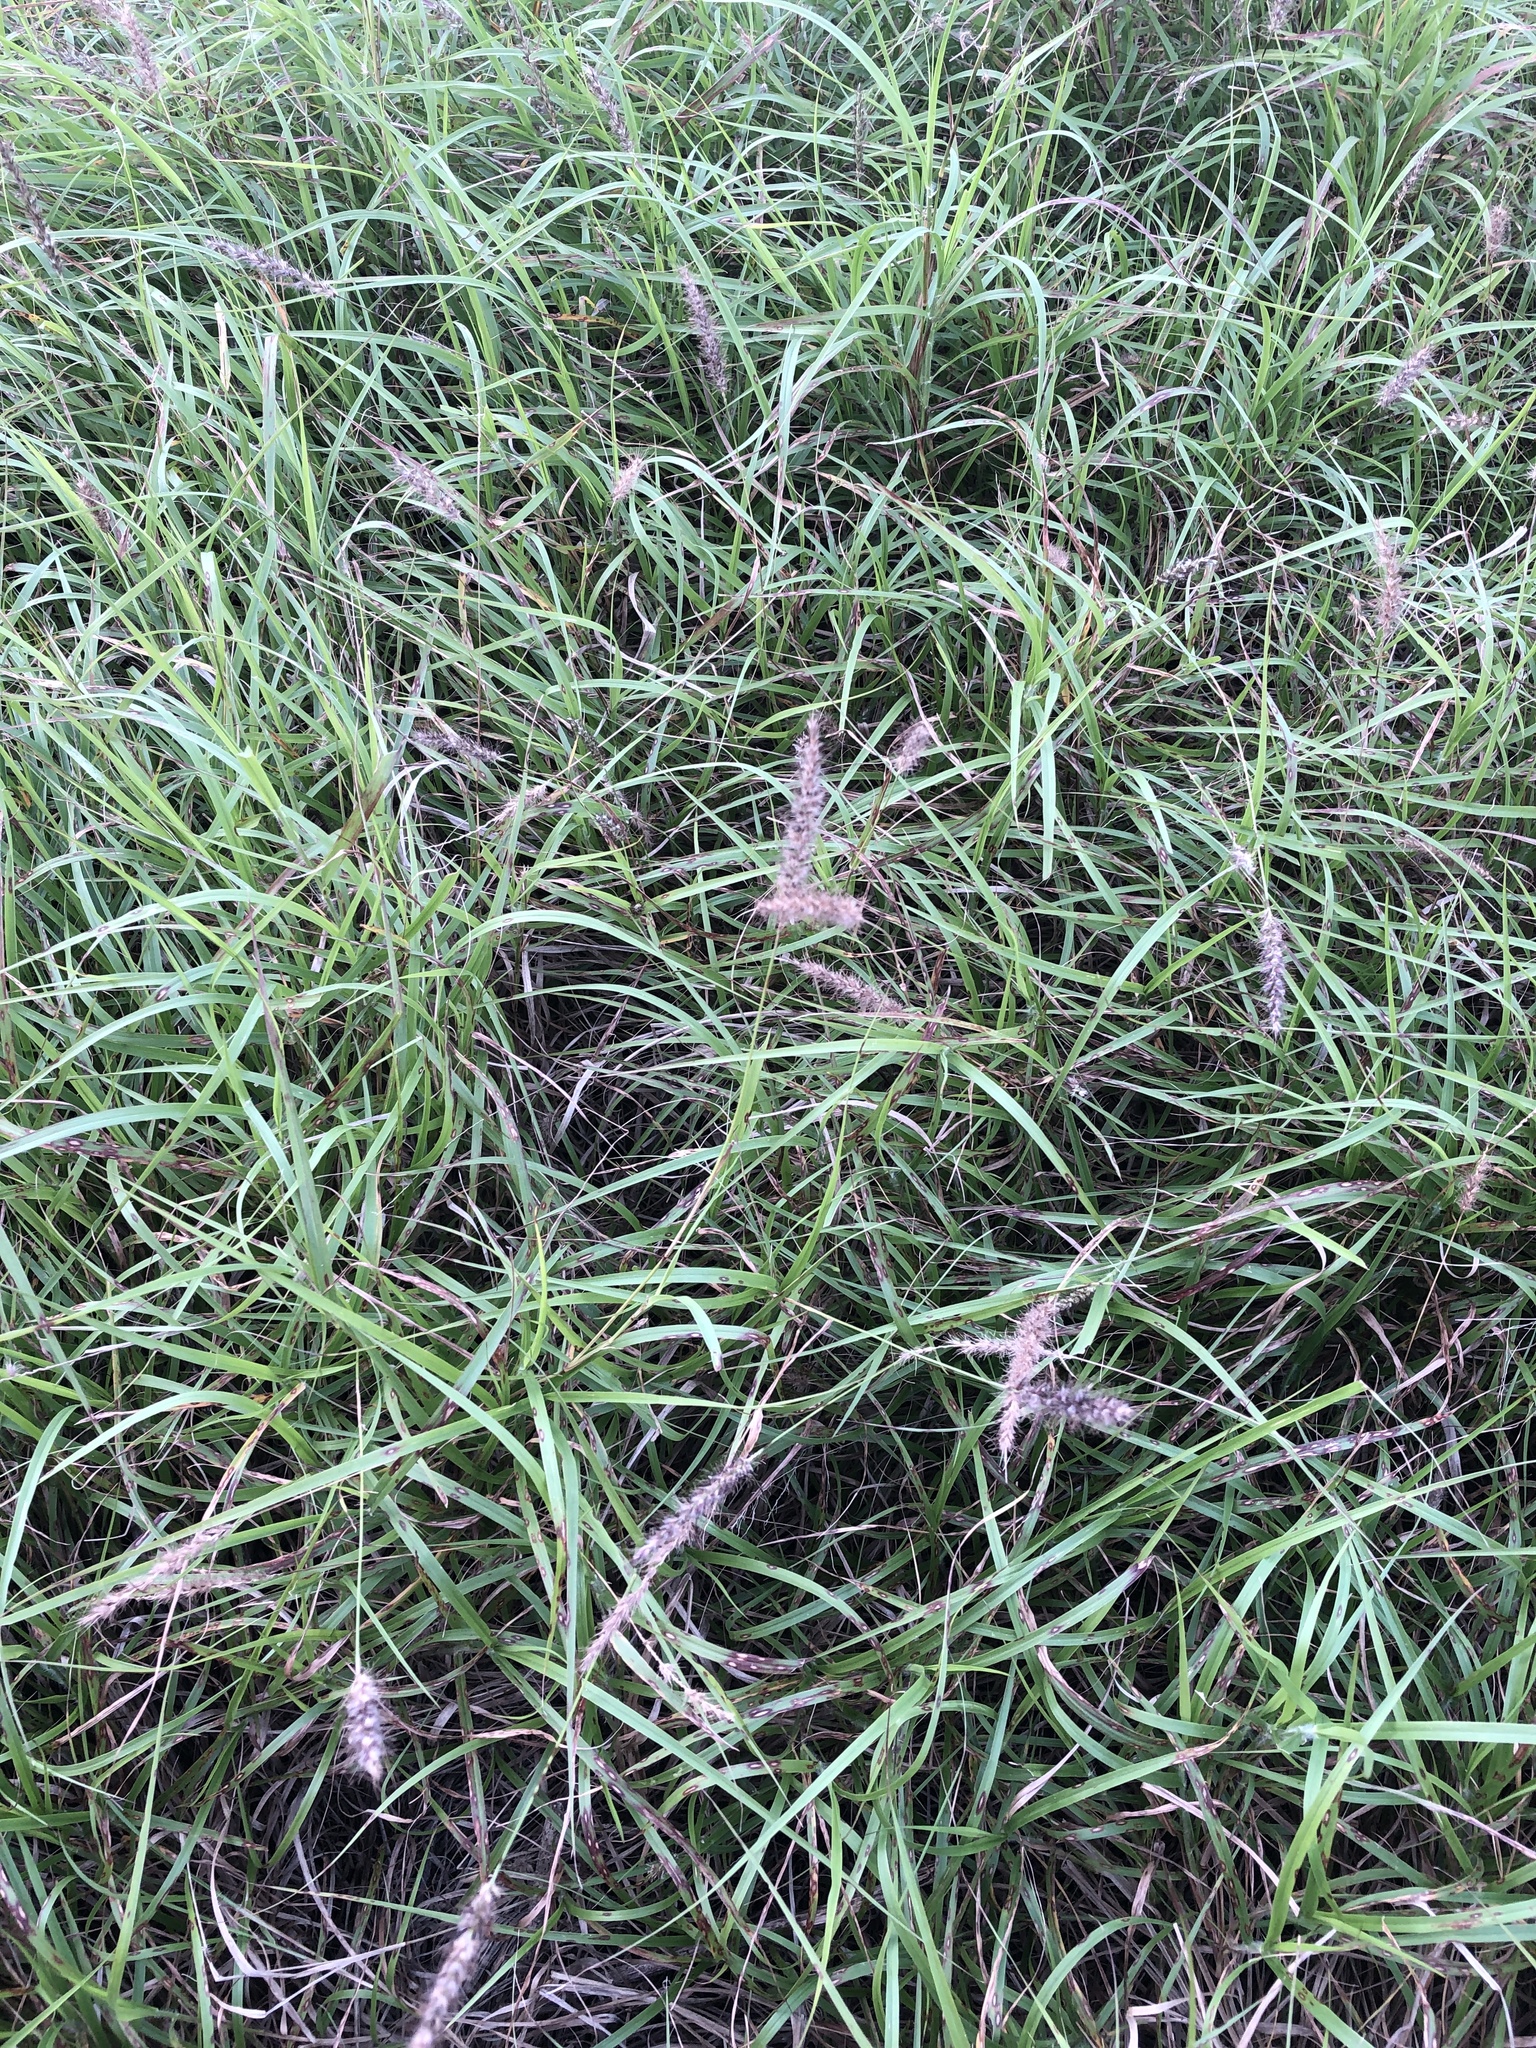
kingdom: Plantae
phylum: Tracheophyta
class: Liliopsida
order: Poales
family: Poaceae
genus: Cenchrus
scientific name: Cenchrus ciliaris
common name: Buffelgrass
